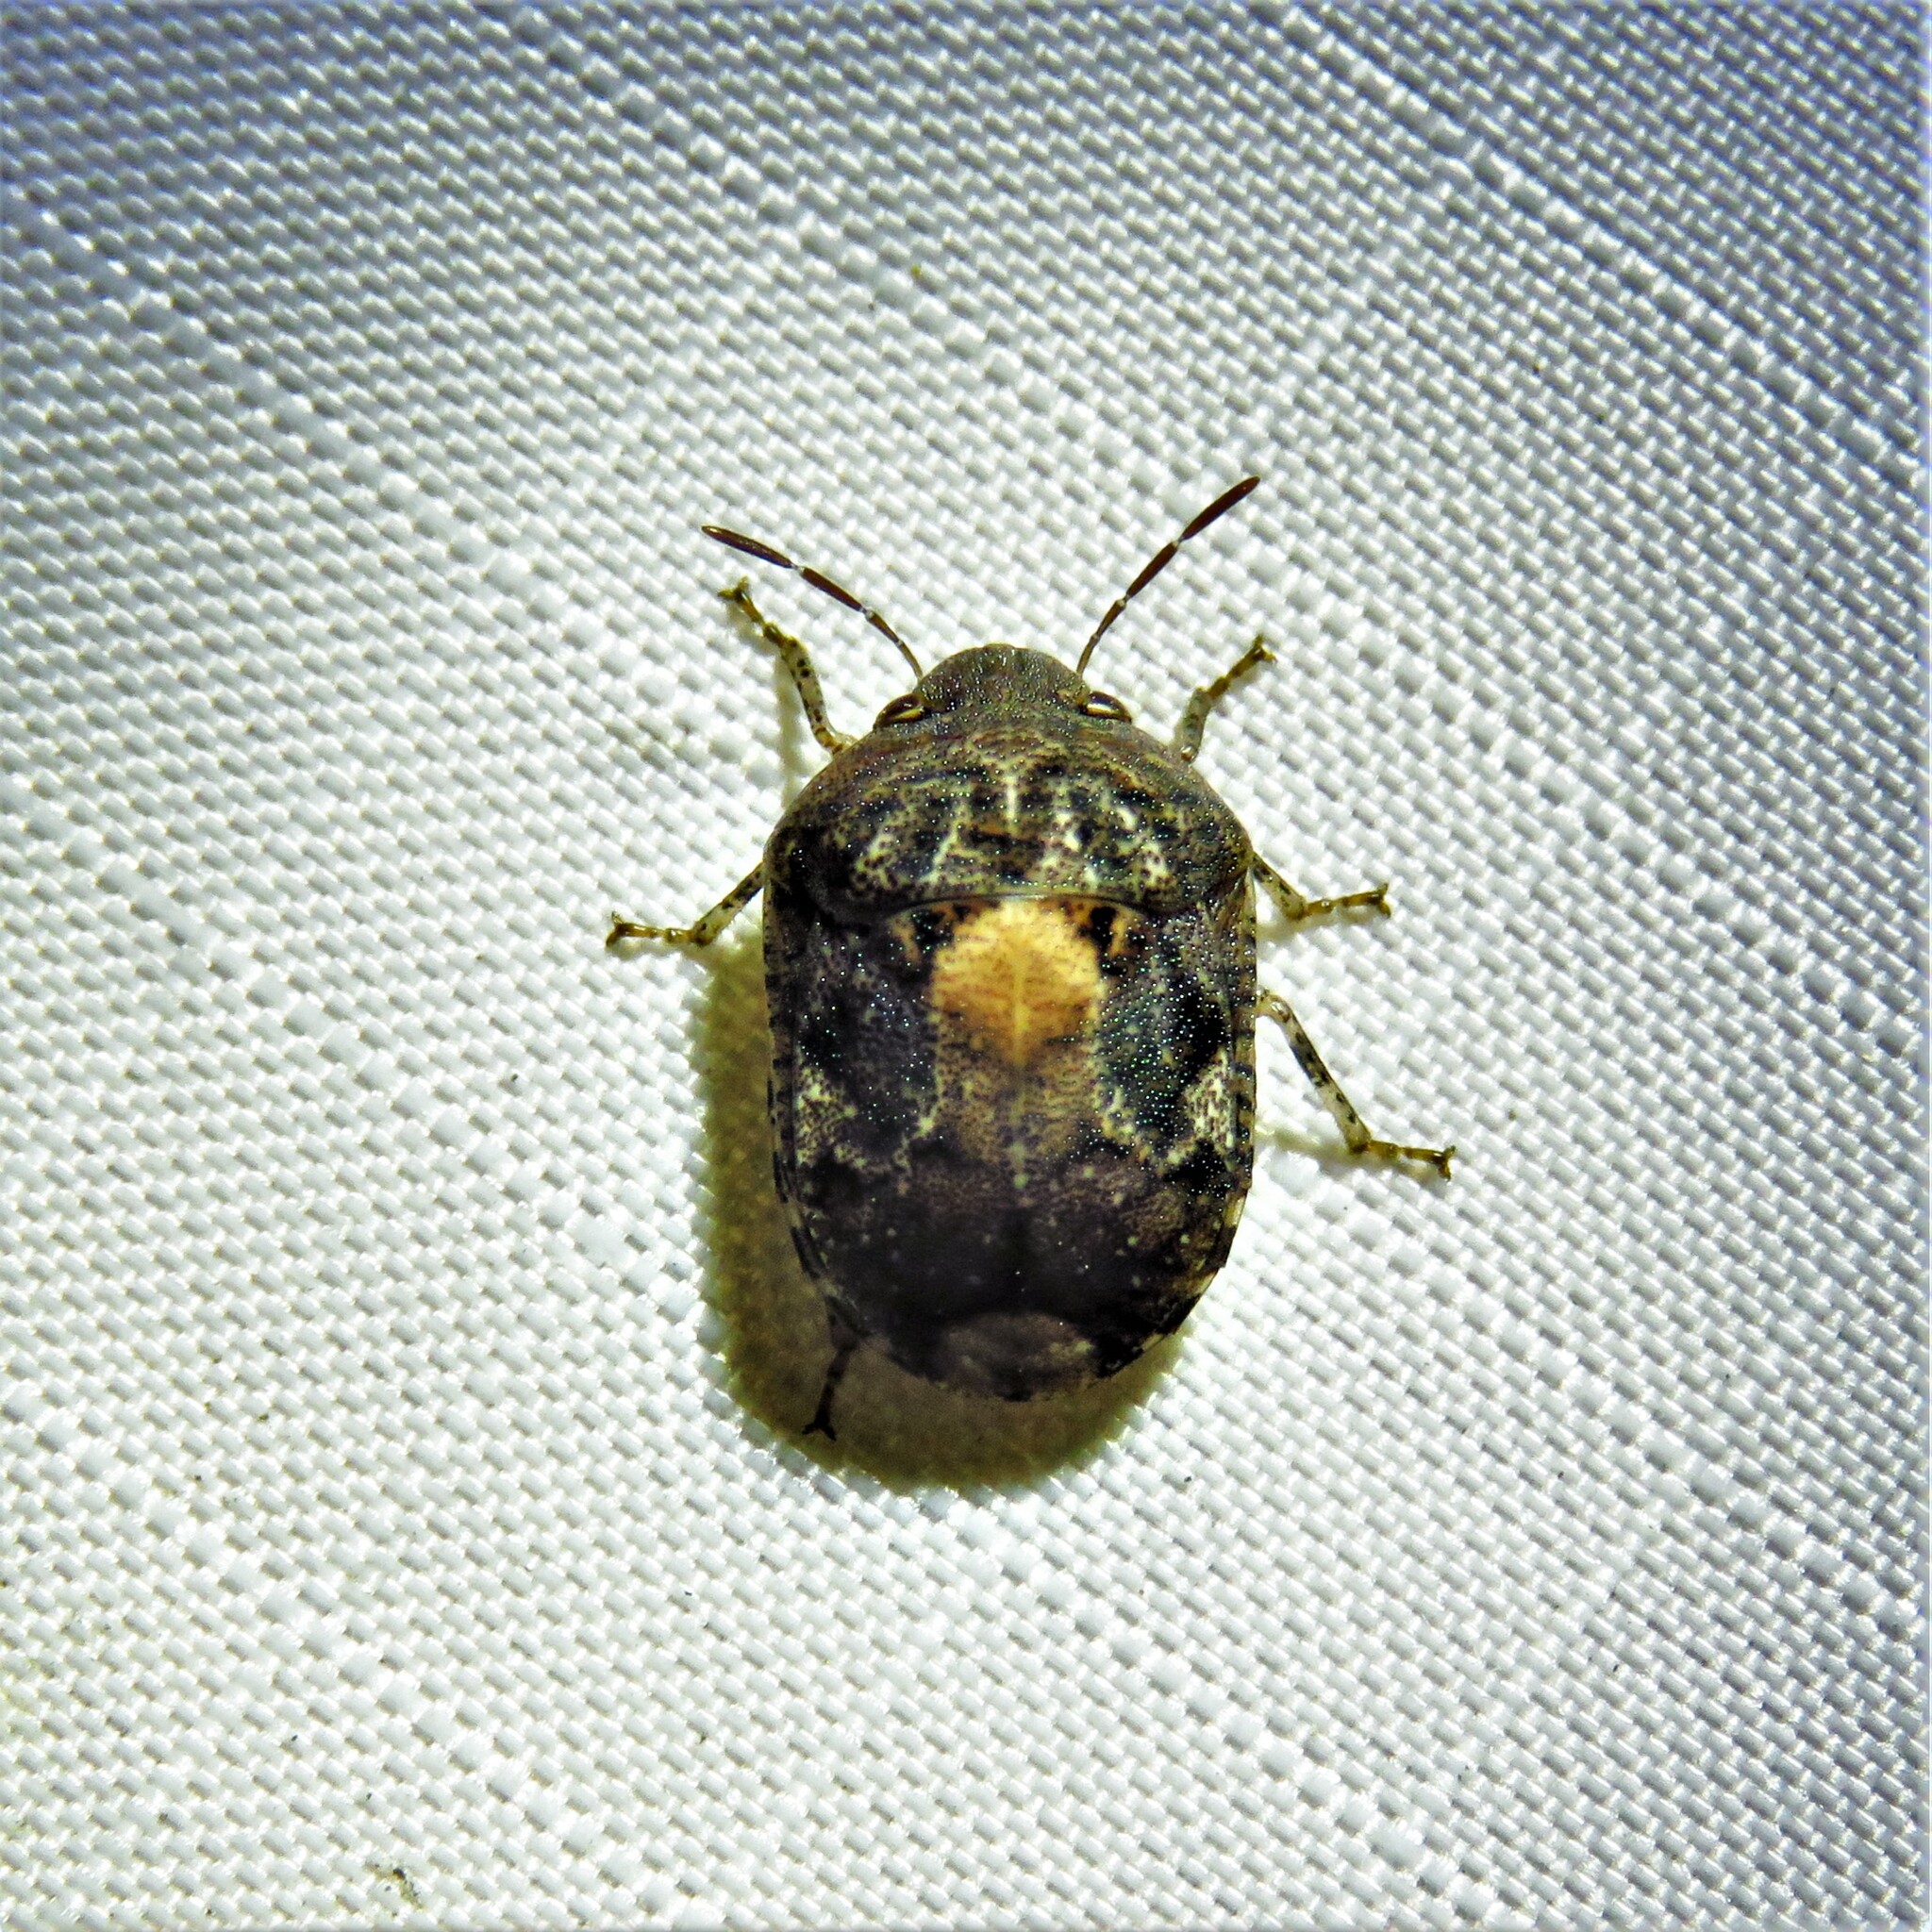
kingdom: Animalia
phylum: Arthropoda
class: Insecta
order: Hemiptera
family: Scutelleridae
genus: Stethaulax
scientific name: Stethaulax marmoratus
